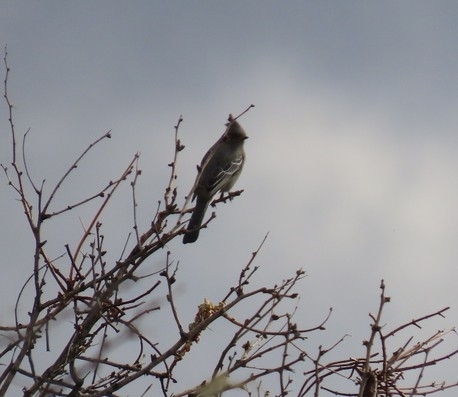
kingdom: Animalia
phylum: Chordata
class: Aves
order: Passeriformes
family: Ptilogonatidae
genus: Phainopepla
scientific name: Phainopepla nitens
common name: Phainopepla
